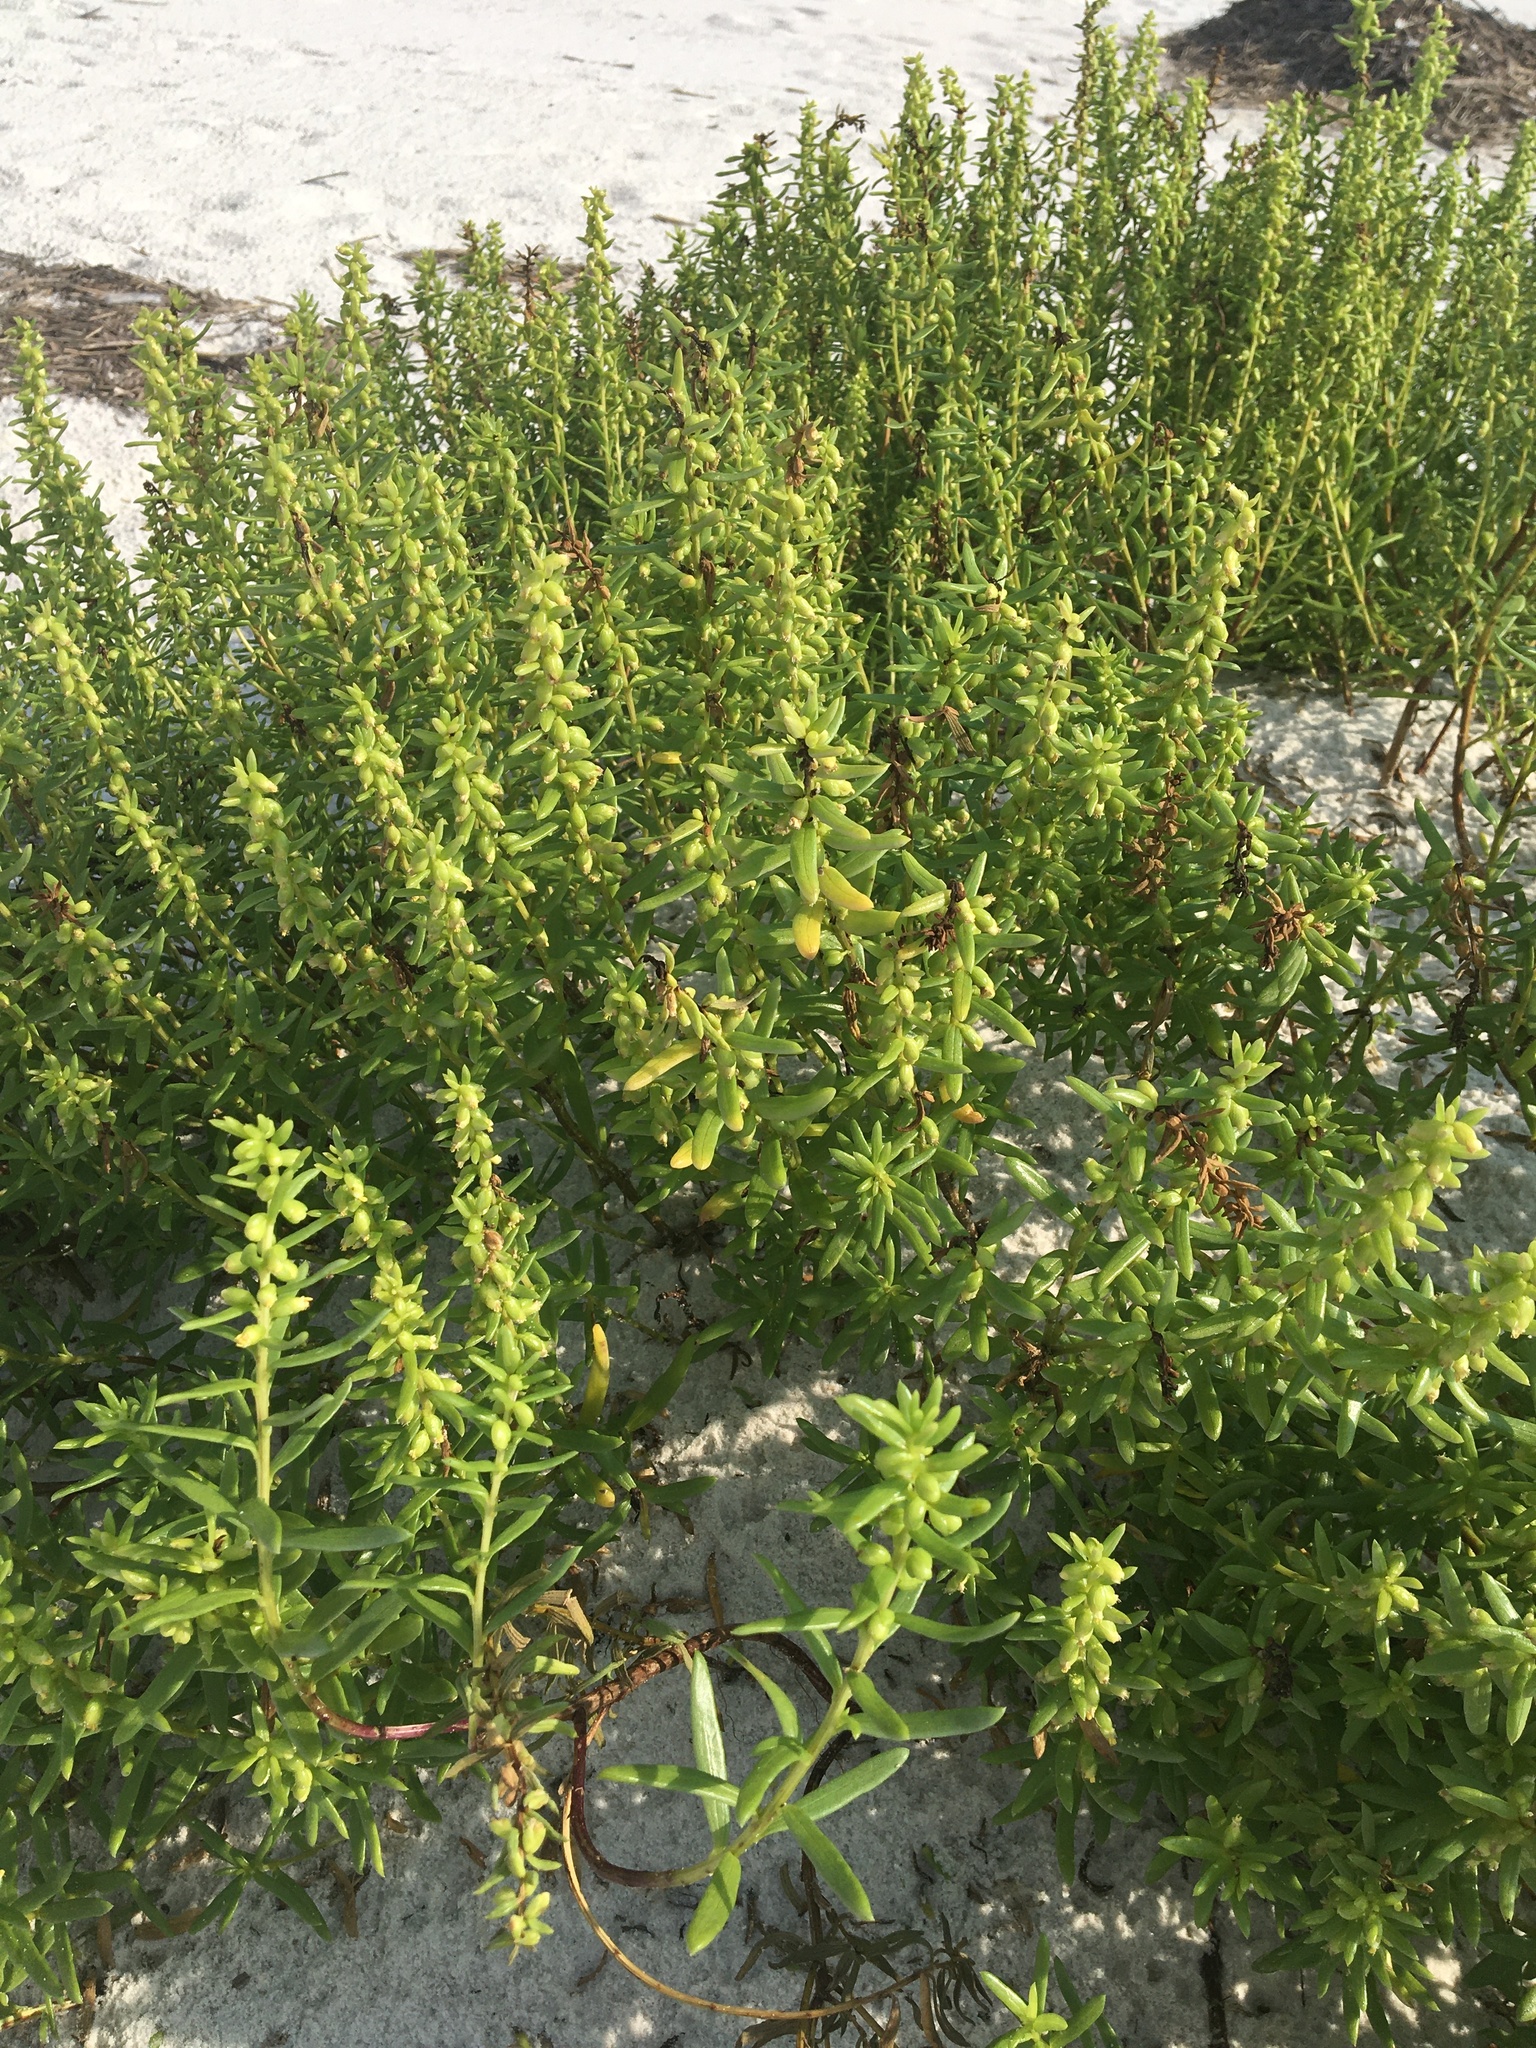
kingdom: Plantae
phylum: Tracheophyta
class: Magnoliopsida
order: Asterales
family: Asteraceae
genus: Iva
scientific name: Iva imbricata
